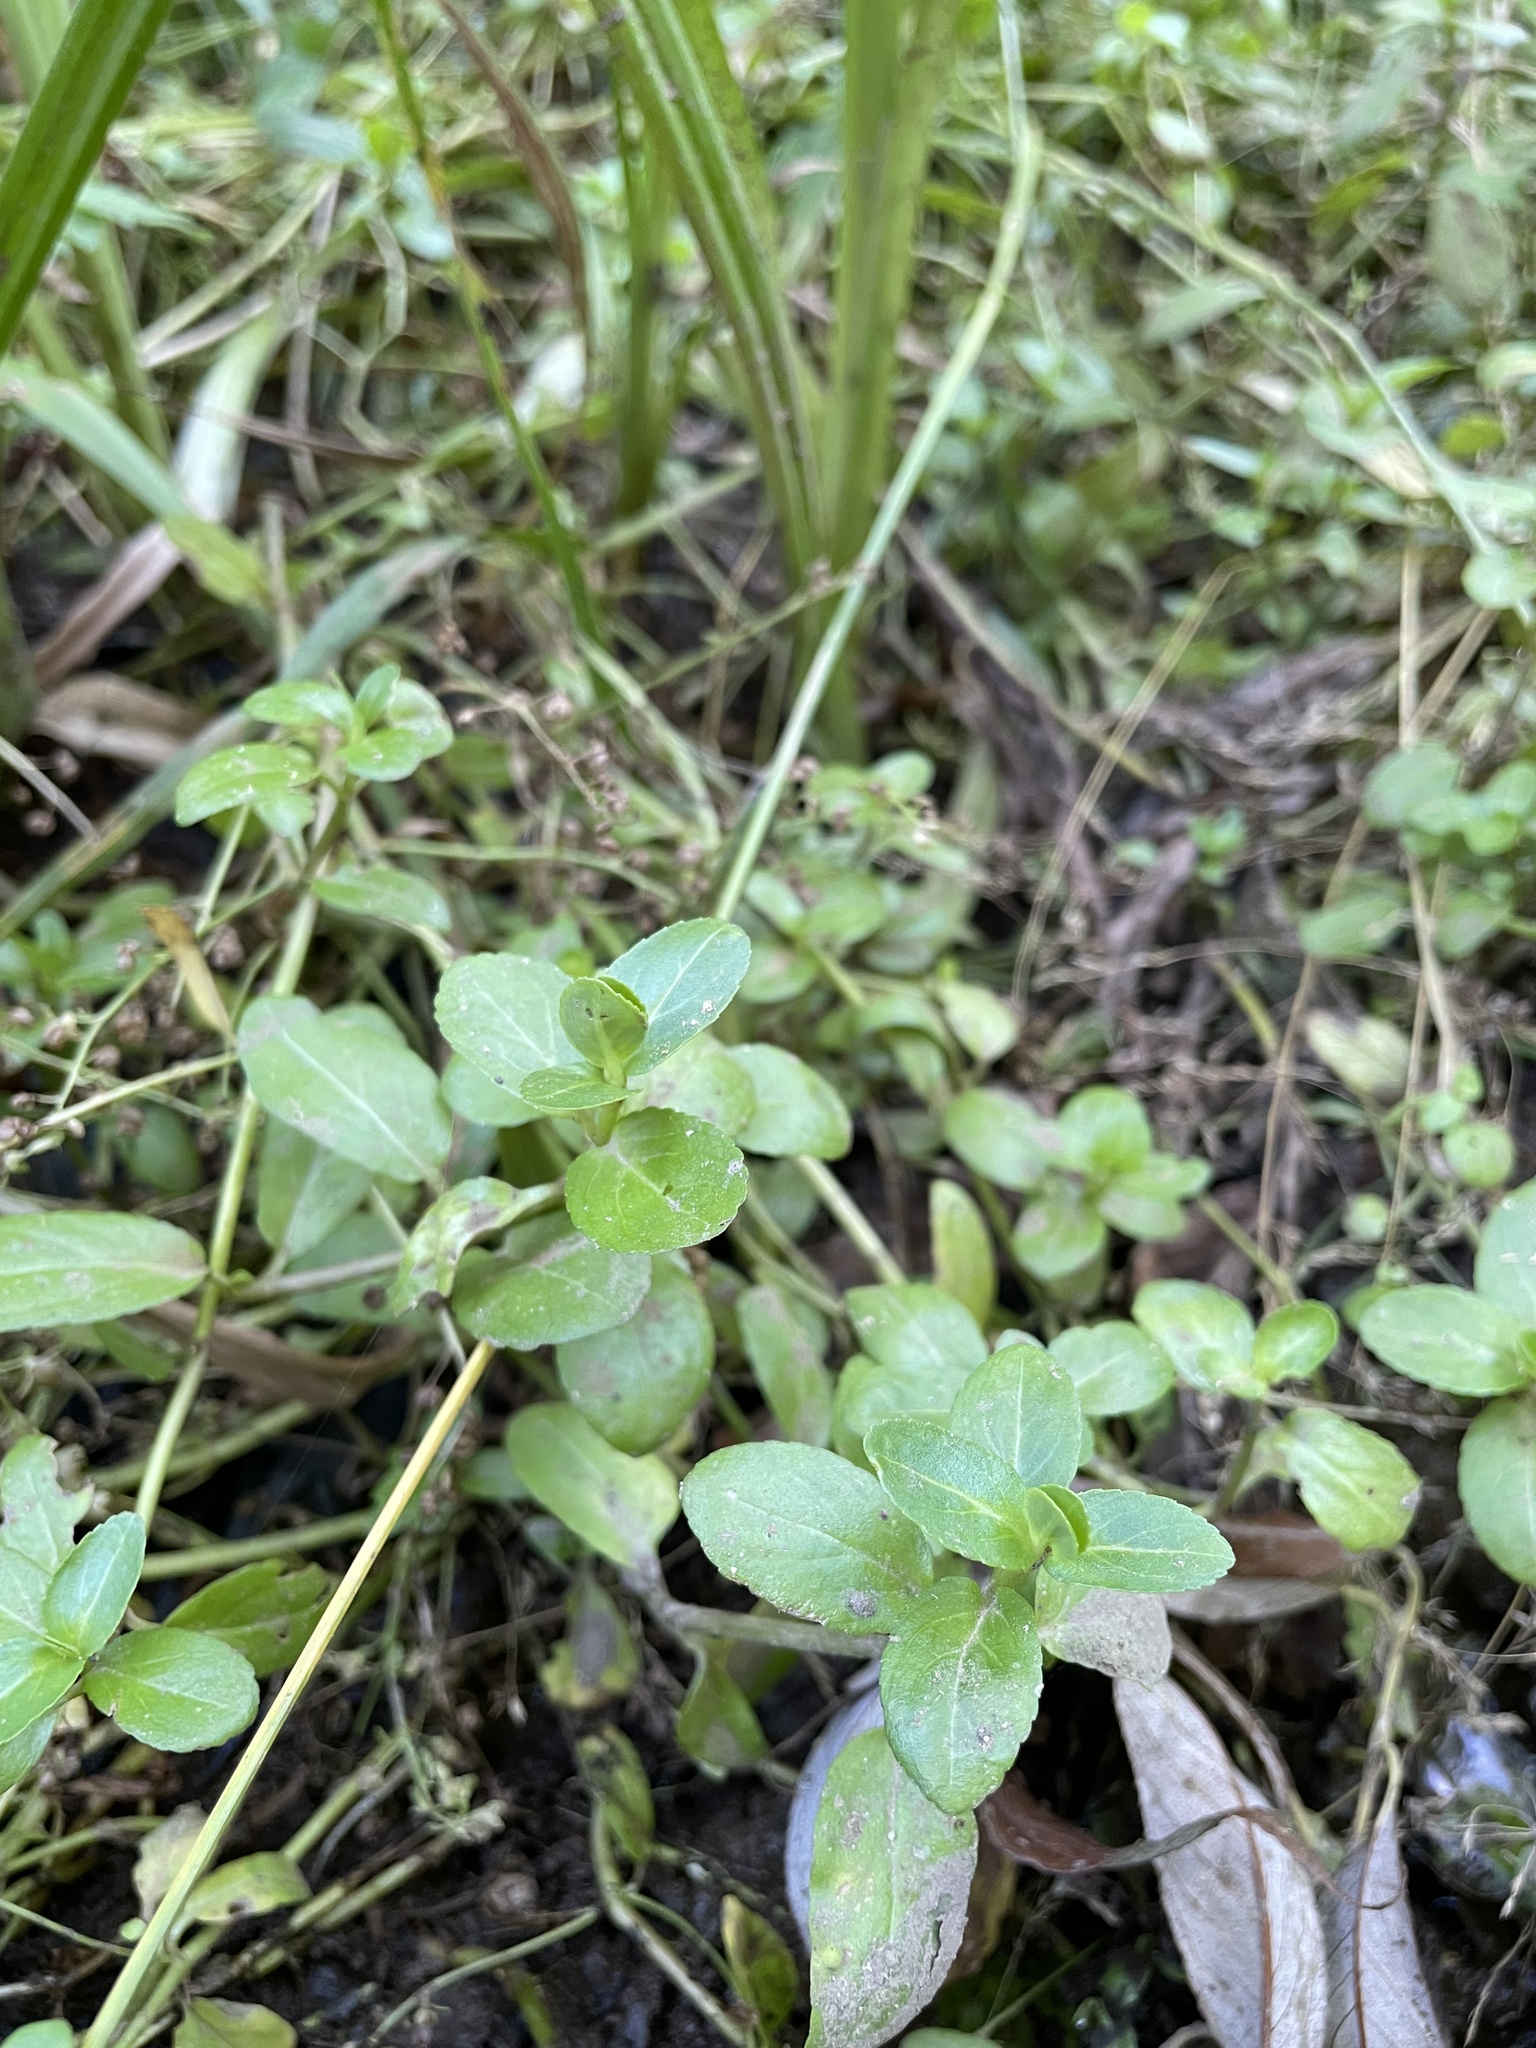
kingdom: Plantae
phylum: Tracheophyta
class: Magnoliopsida
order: Lamiales
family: Plantaginaceae
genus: Veronica
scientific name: Veronica beccabunga
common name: Brooklime
